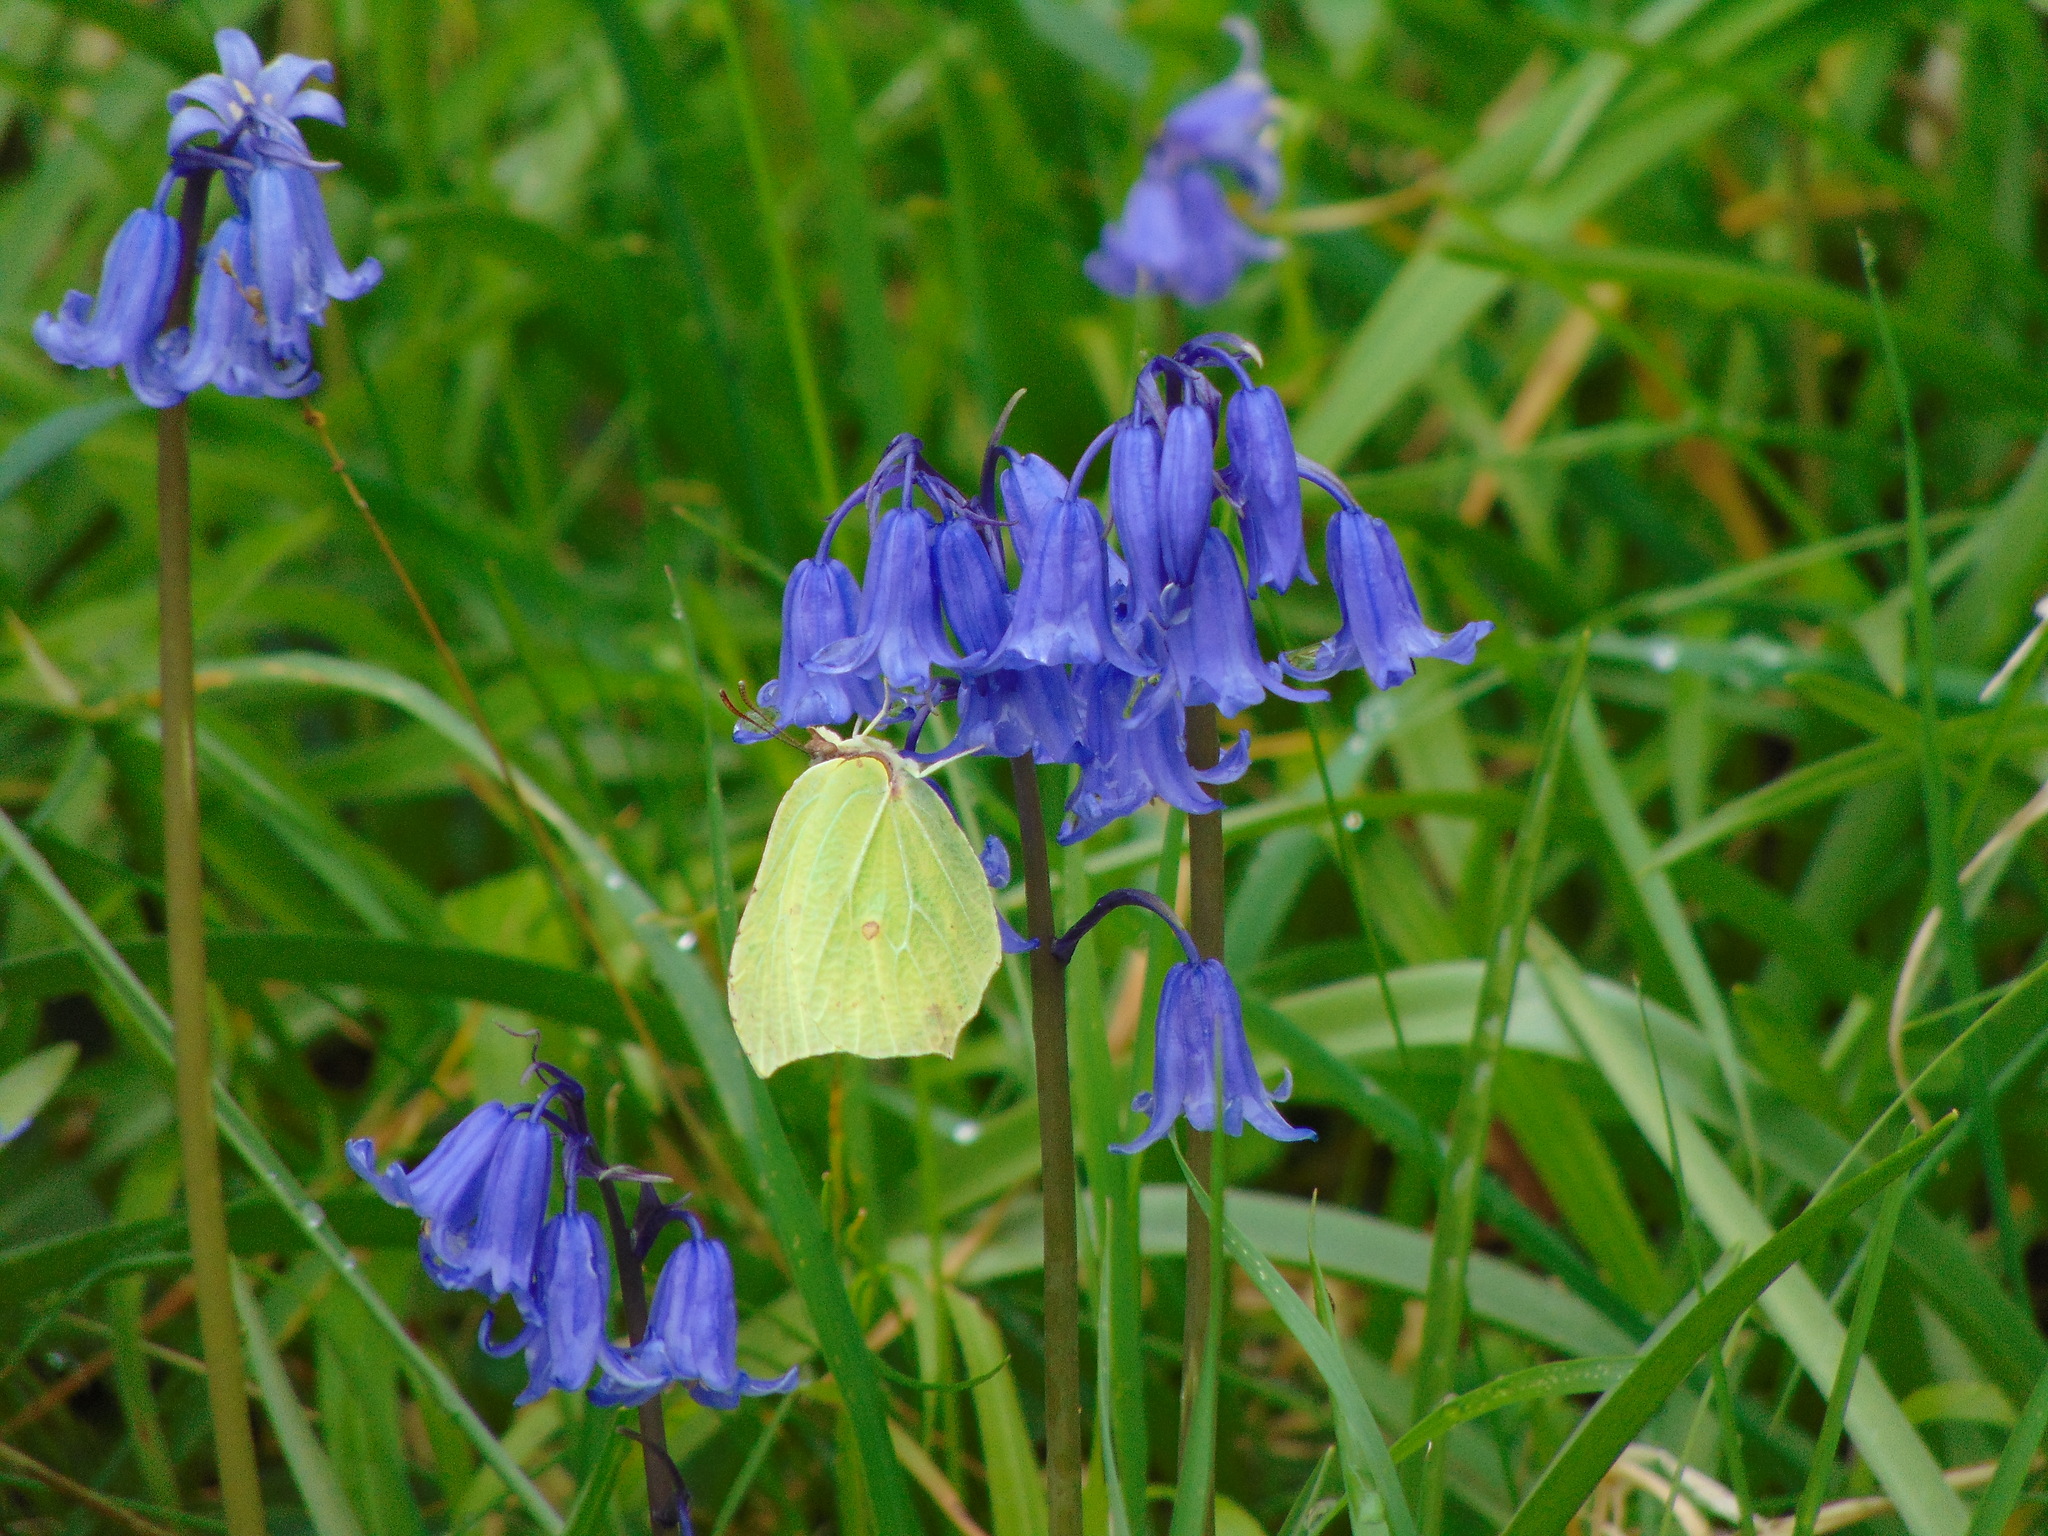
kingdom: Animalia
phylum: Arthropoda
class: Insecta
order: Lepidoptera
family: Pieridae
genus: Gonepteryx
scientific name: Gonepteryx rhamni
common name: Brimstone
